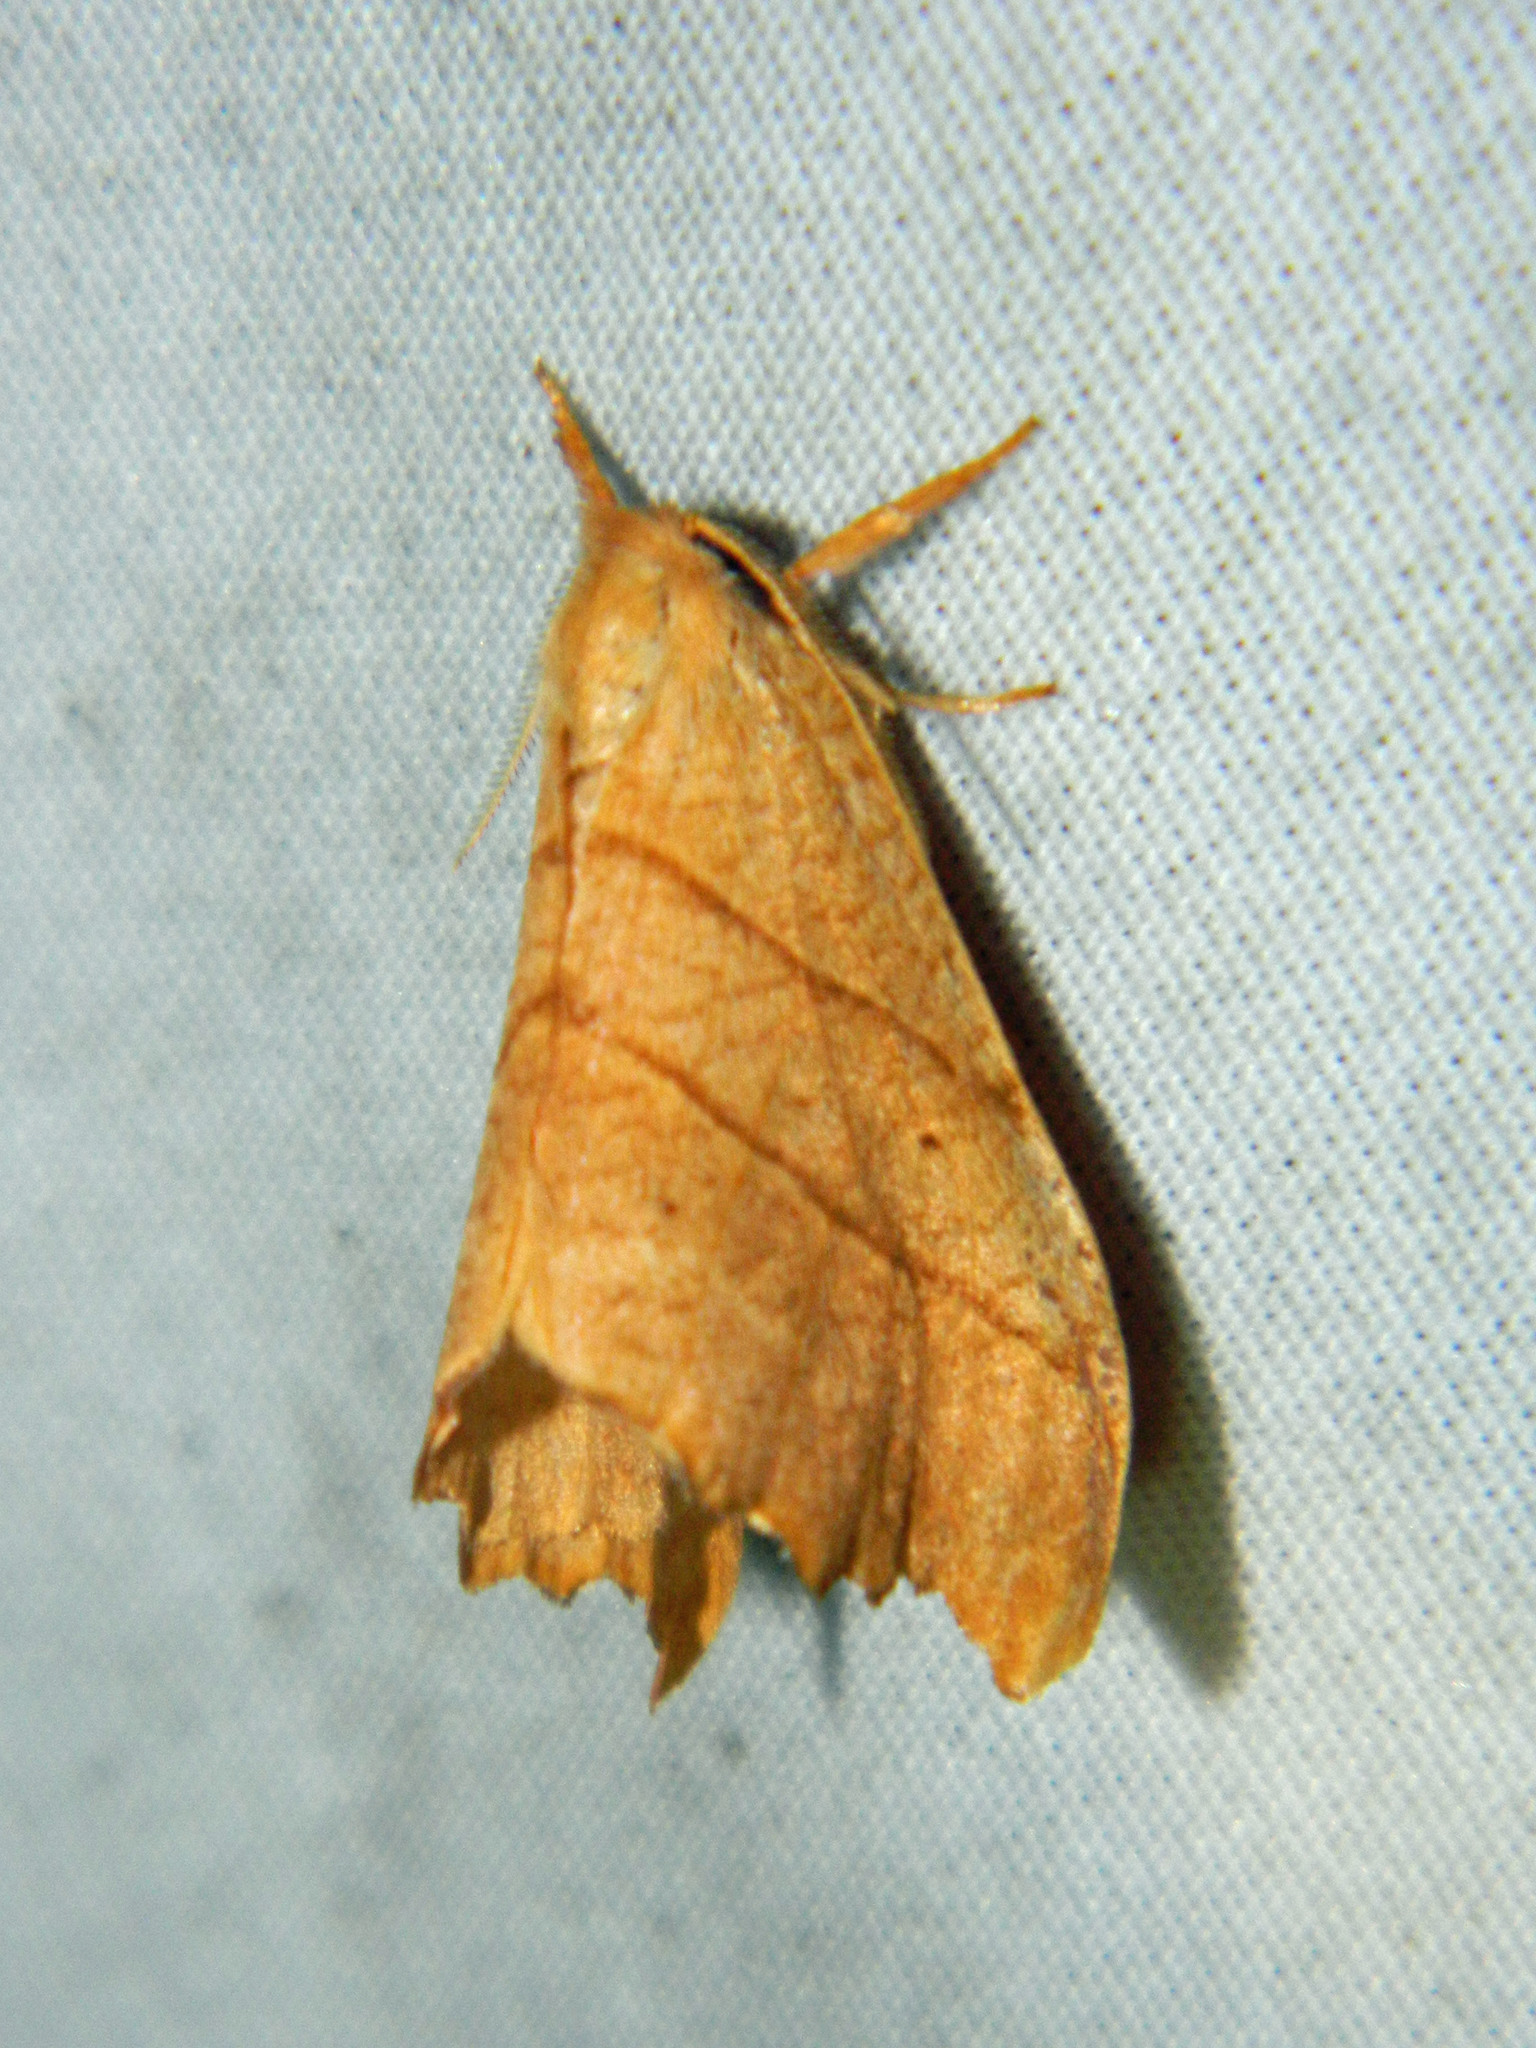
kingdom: Animalia
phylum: Arthropoda
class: Insecta
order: Lepidoptera
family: Drepanidae
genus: Falcaria
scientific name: Falcaria bilineata
